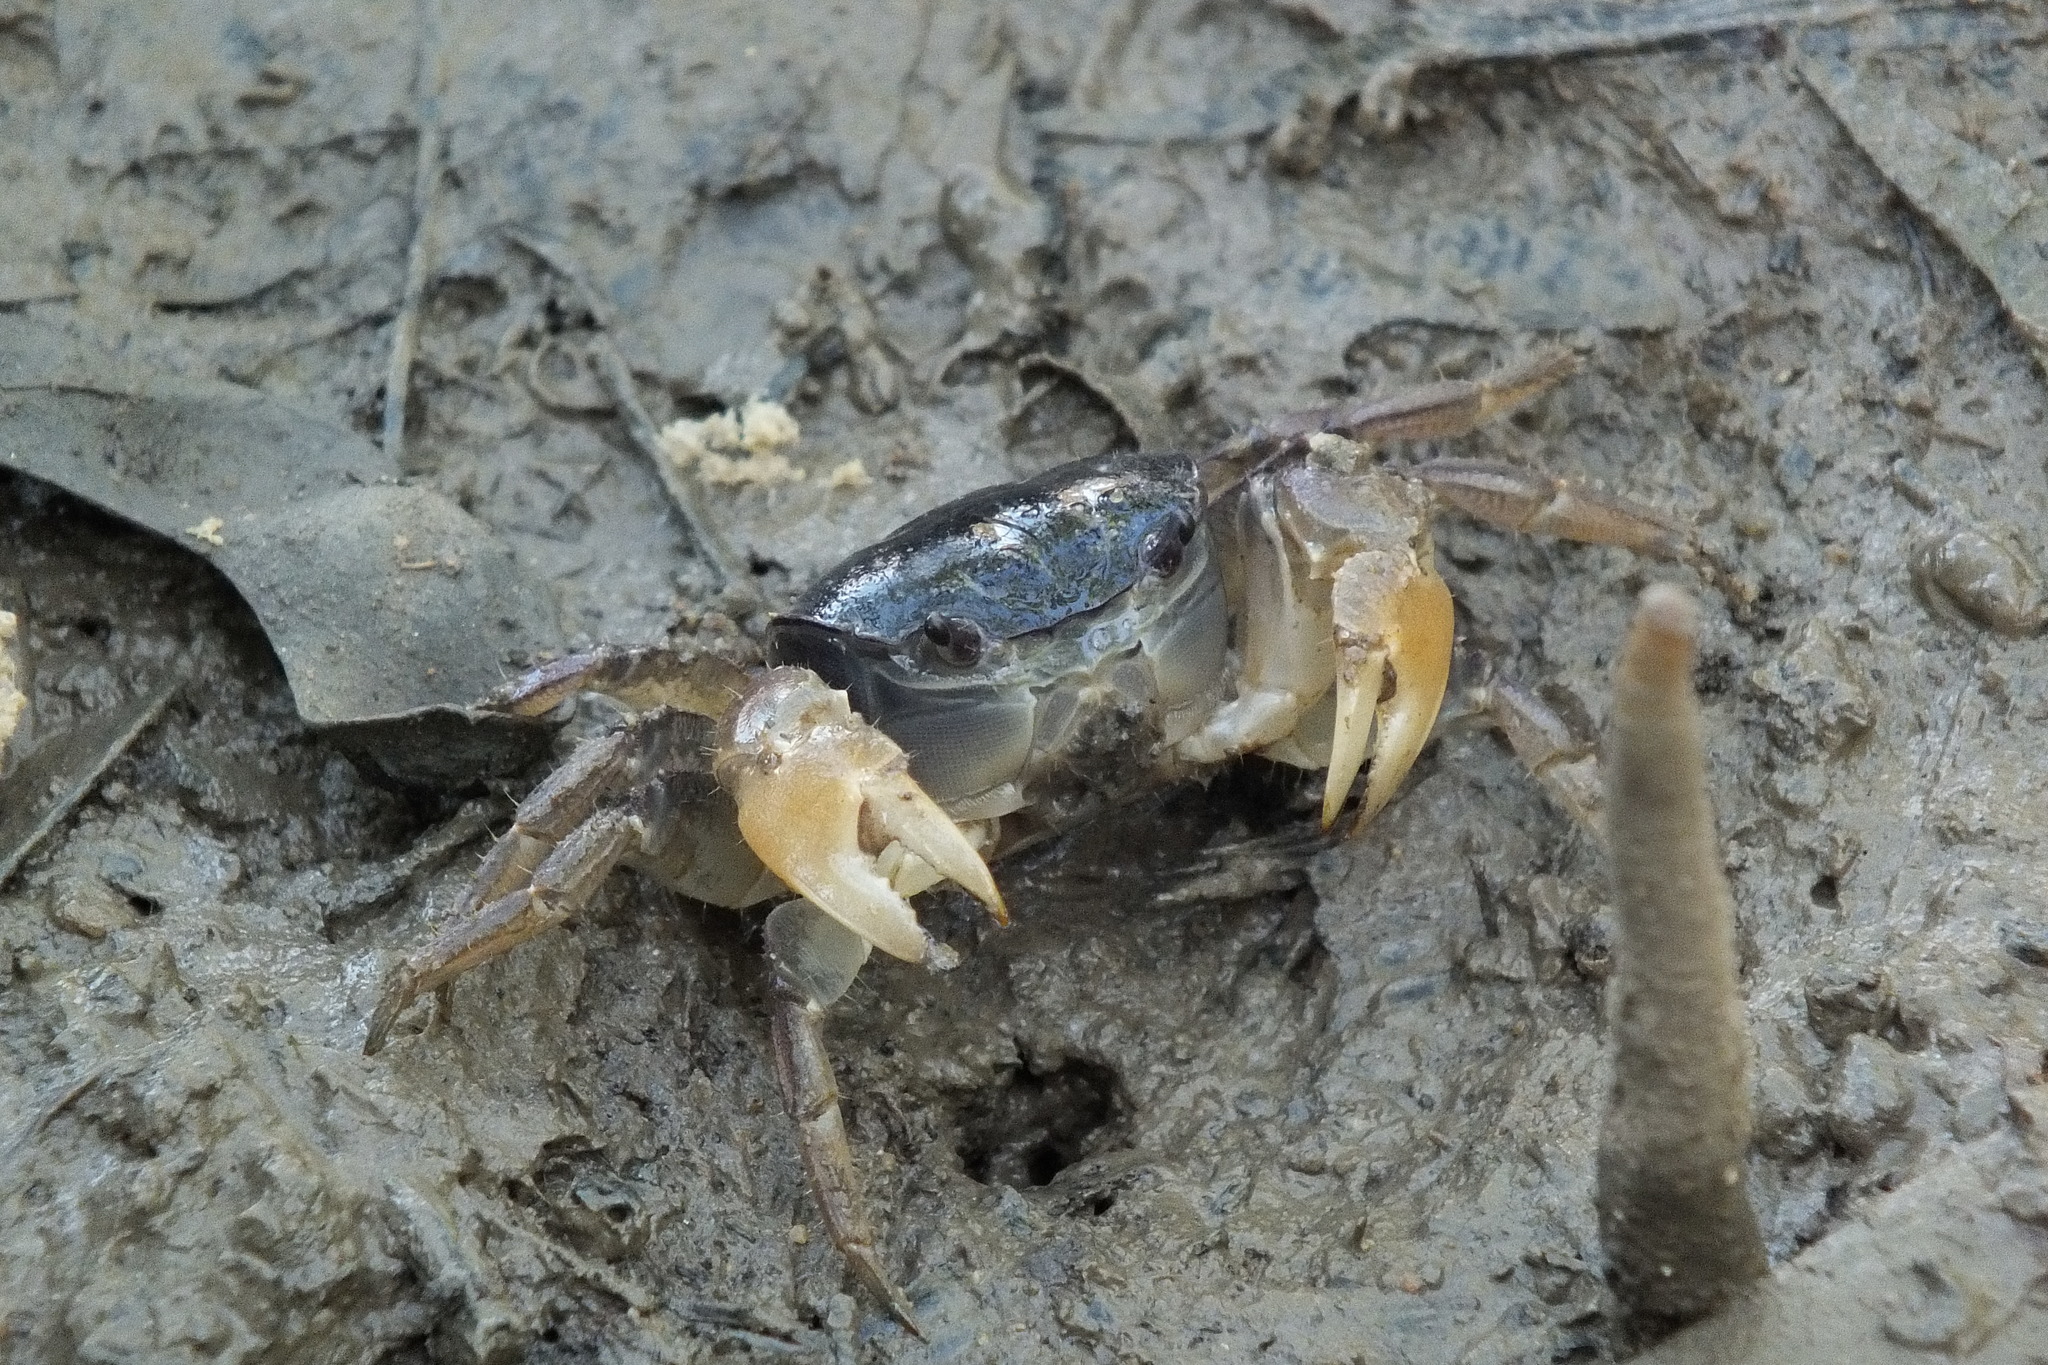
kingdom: Animalia
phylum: Arthropoda
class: Malacostraca
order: Decapoda
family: Varunidae
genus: Pseudohelice
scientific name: Pseudohelice subquadrata
